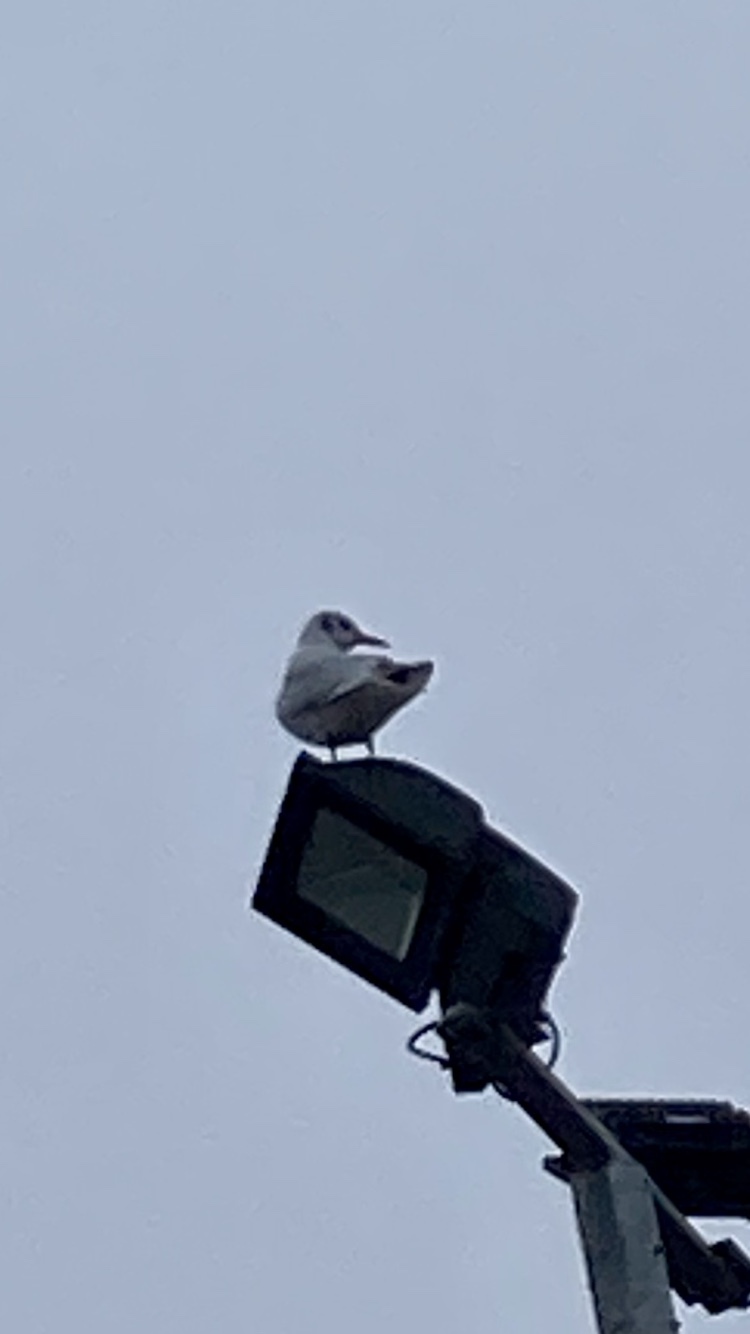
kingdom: Animalia
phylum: Chordata
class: Aves
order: Charadriiformes
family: Laridae
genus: Chroicocephalus
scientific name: Chroicocephalus ridibundus
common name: Black-headed gull
